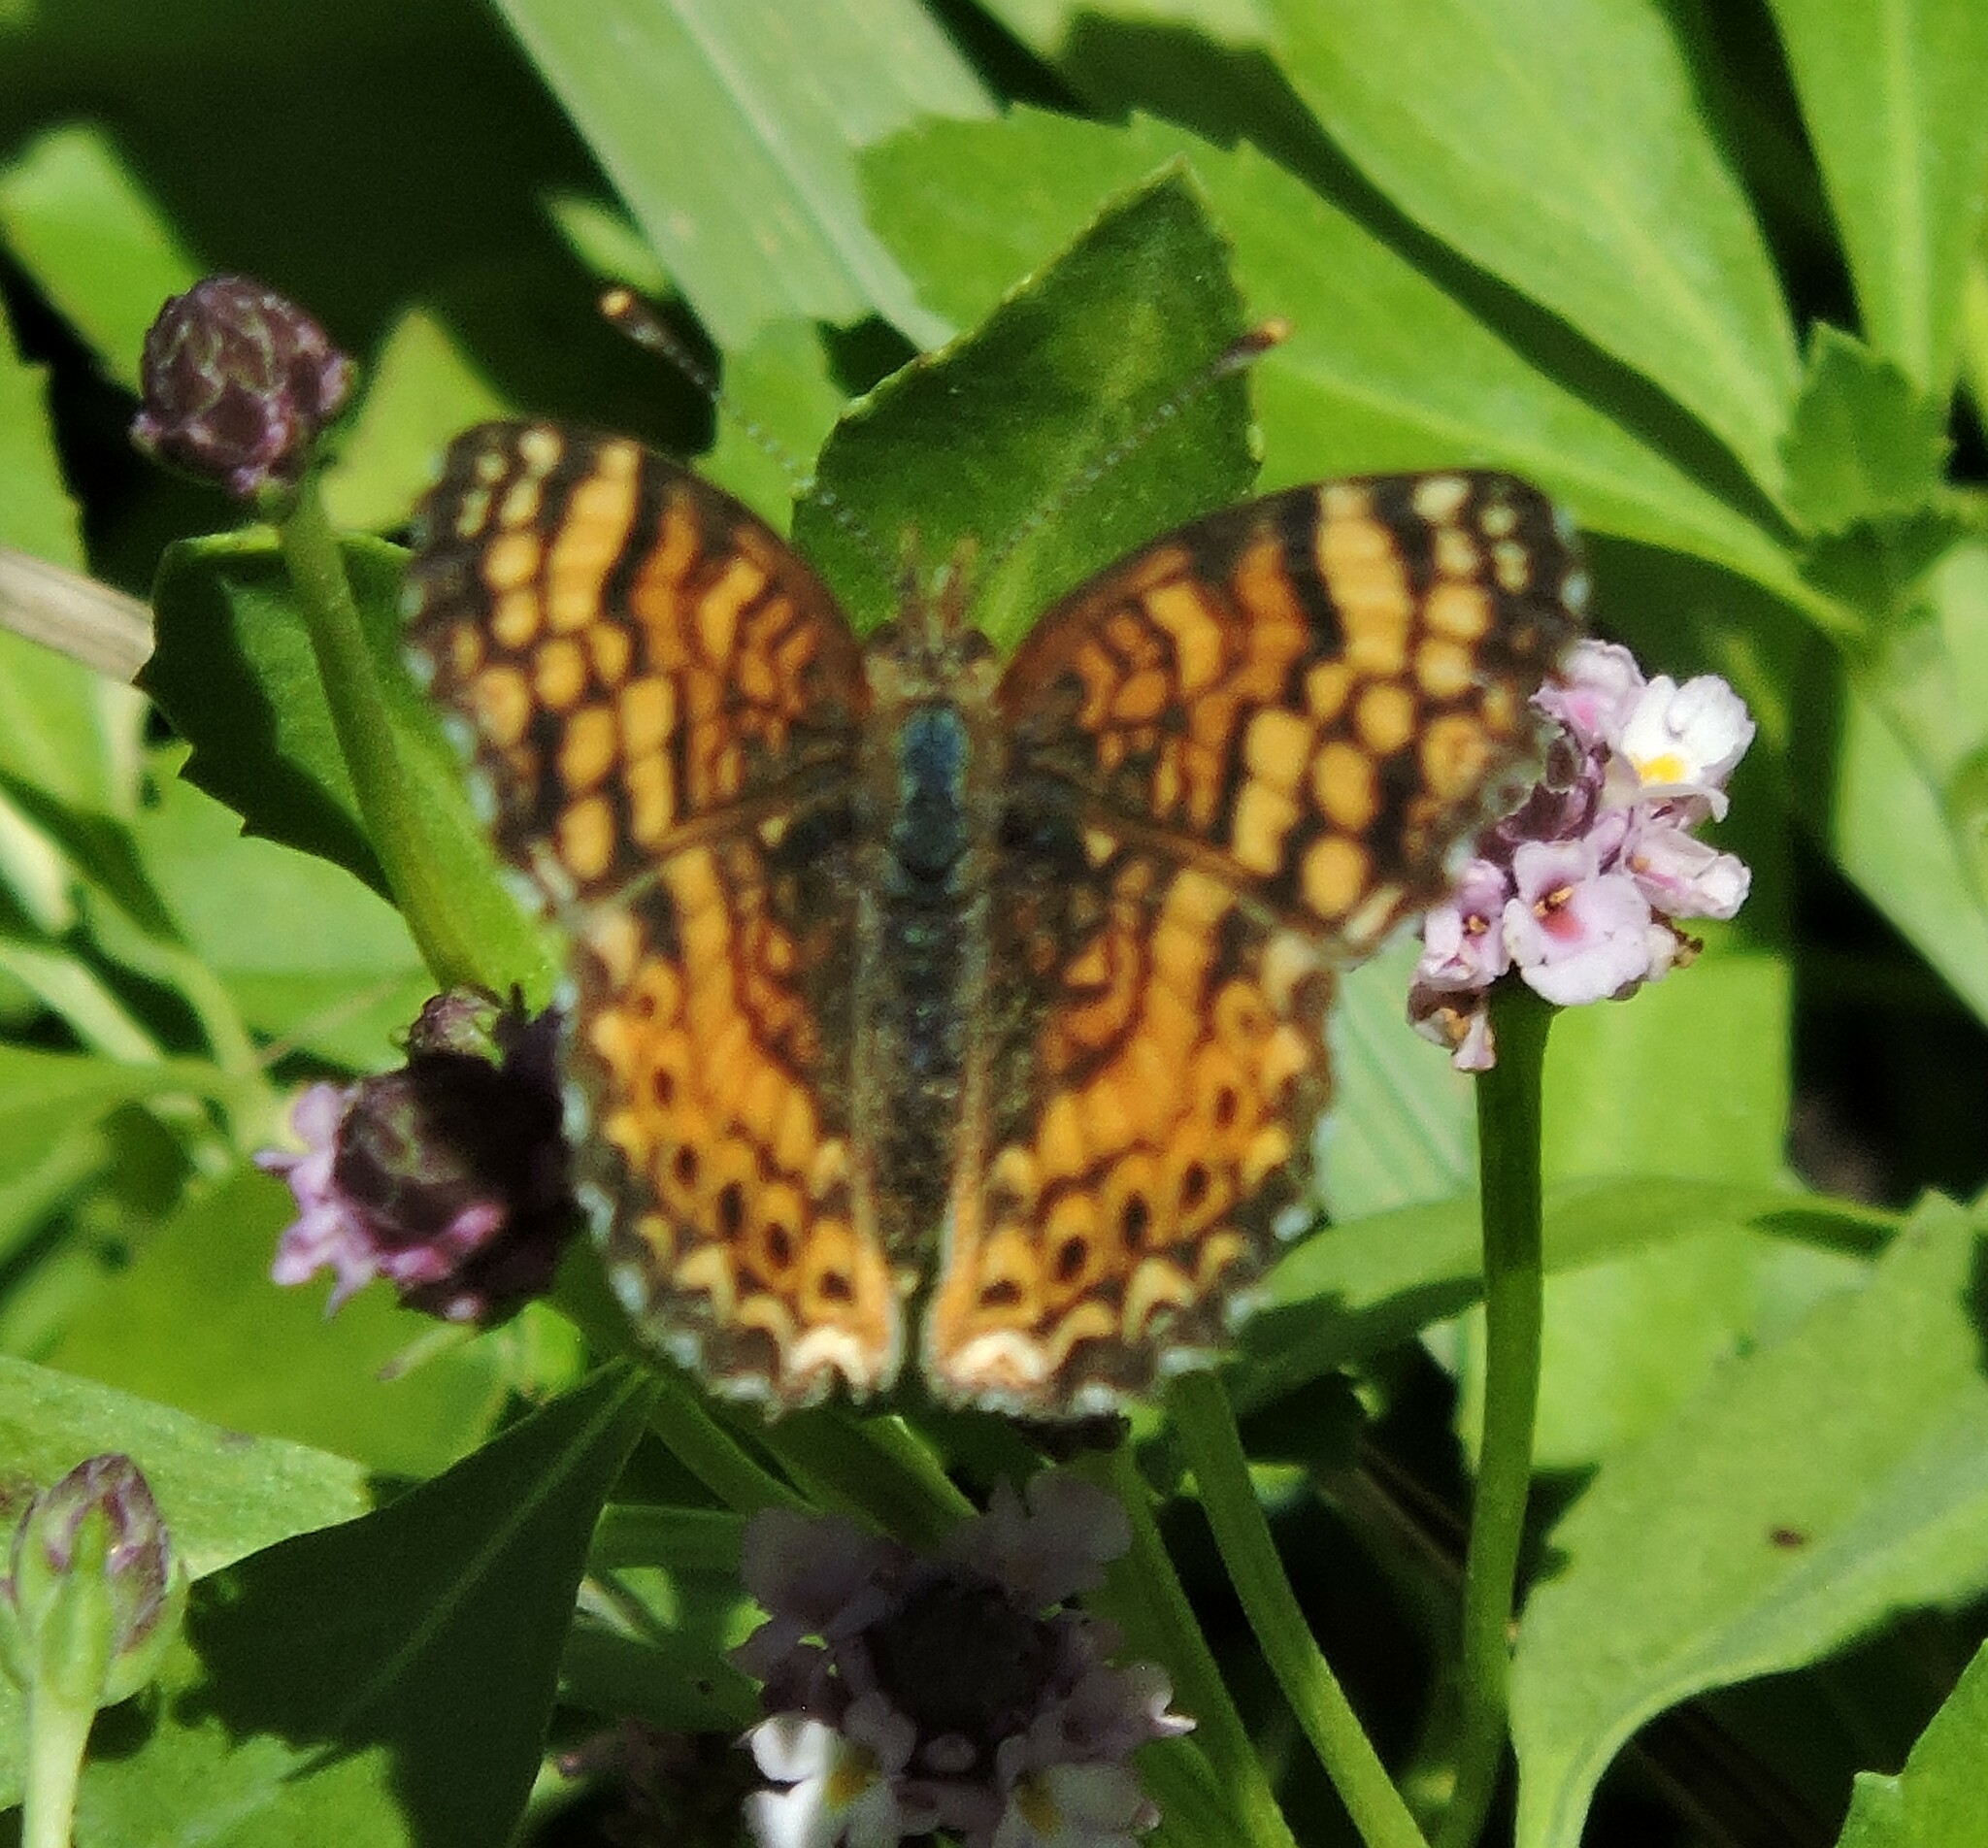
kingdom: Animalia
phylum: Arthropoda
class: Insecta
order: Lepidoptera
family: Nymphalidae
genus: Eresia
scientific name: Eresia aveyrona
